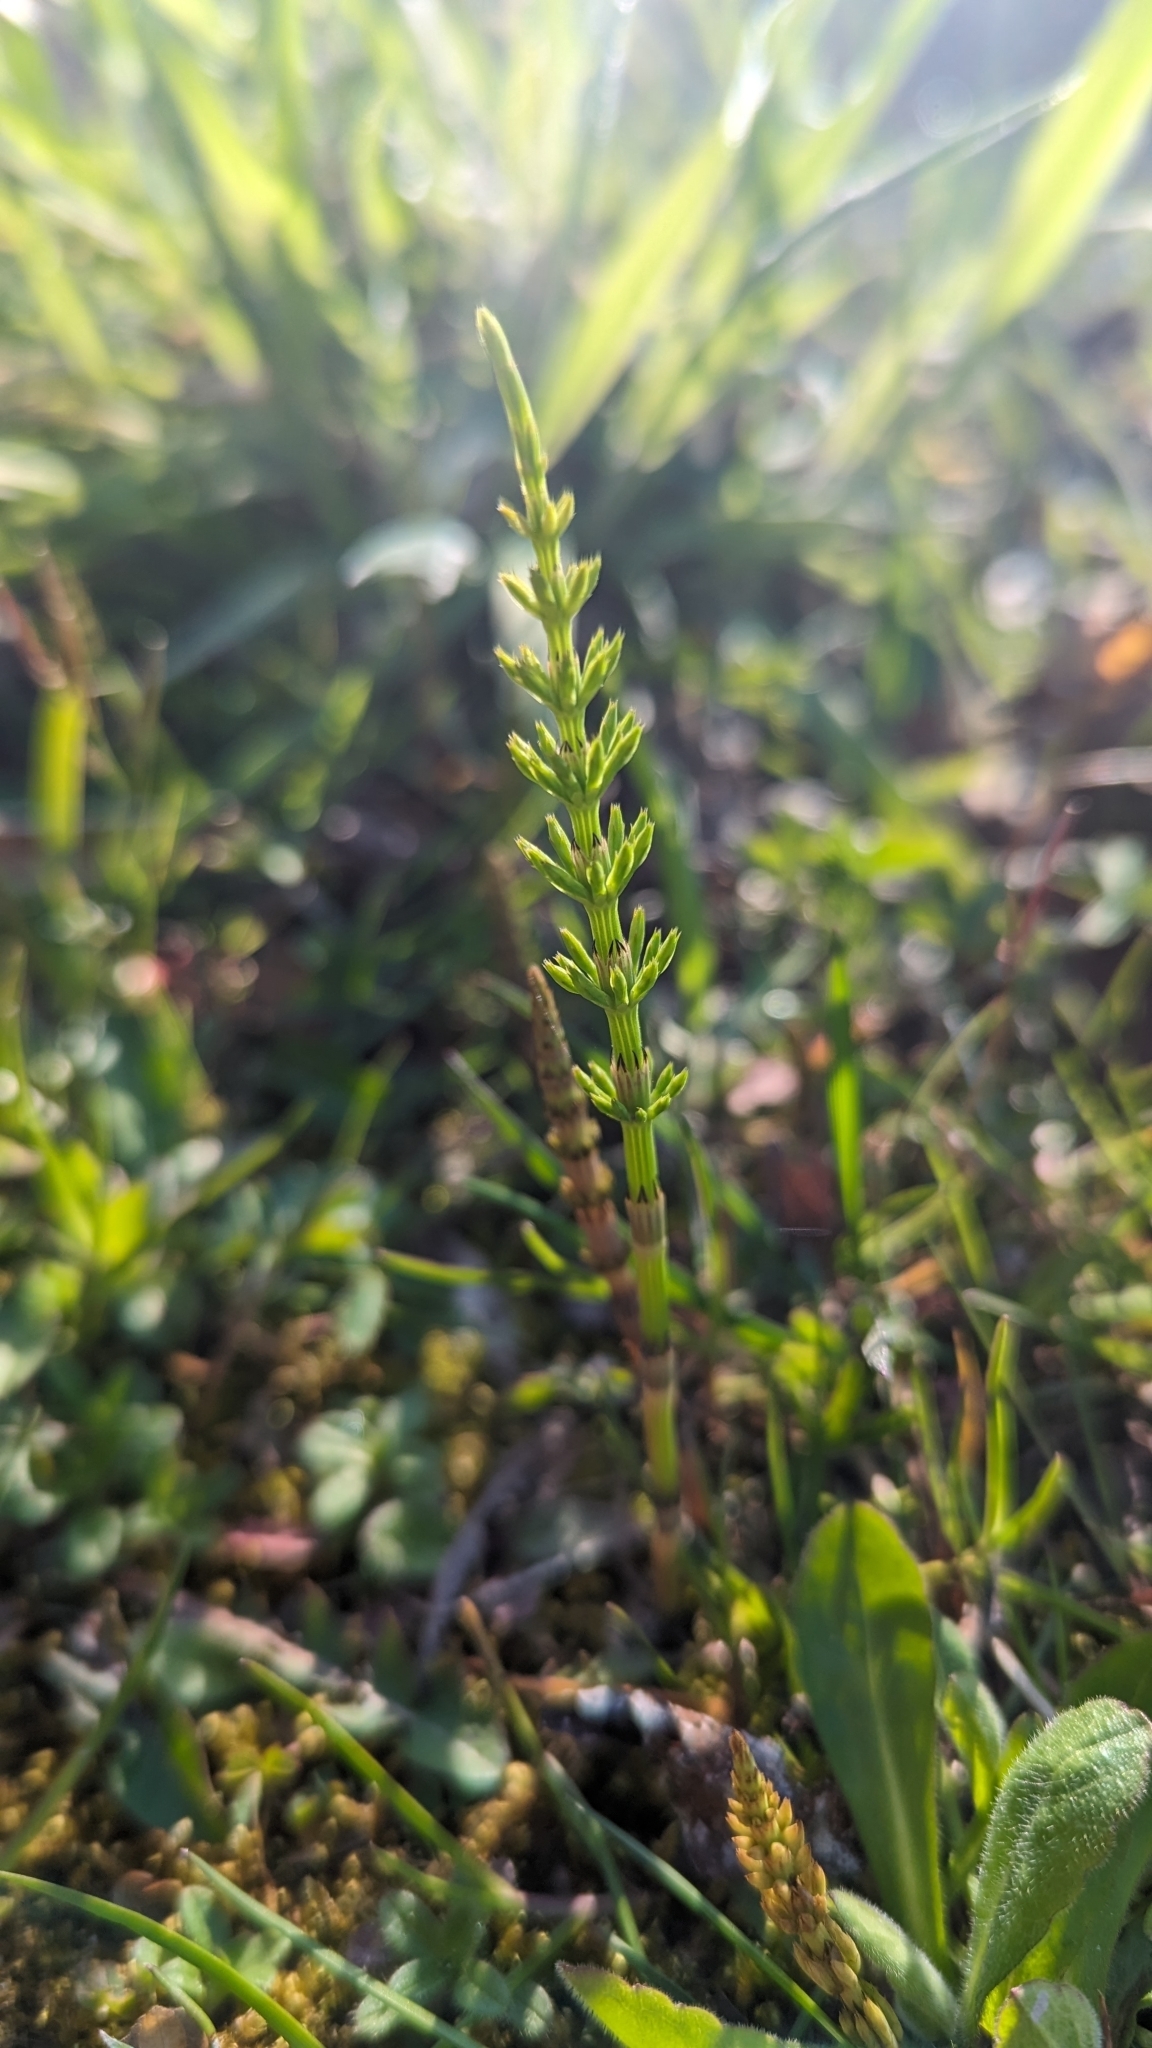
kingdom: Plantae
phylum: Tracheophyta
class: Polypodiopsida
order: Equisetales
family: Equisetaceae
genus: Equisetum
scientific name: Equisetum arvense
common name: Field horsetail
